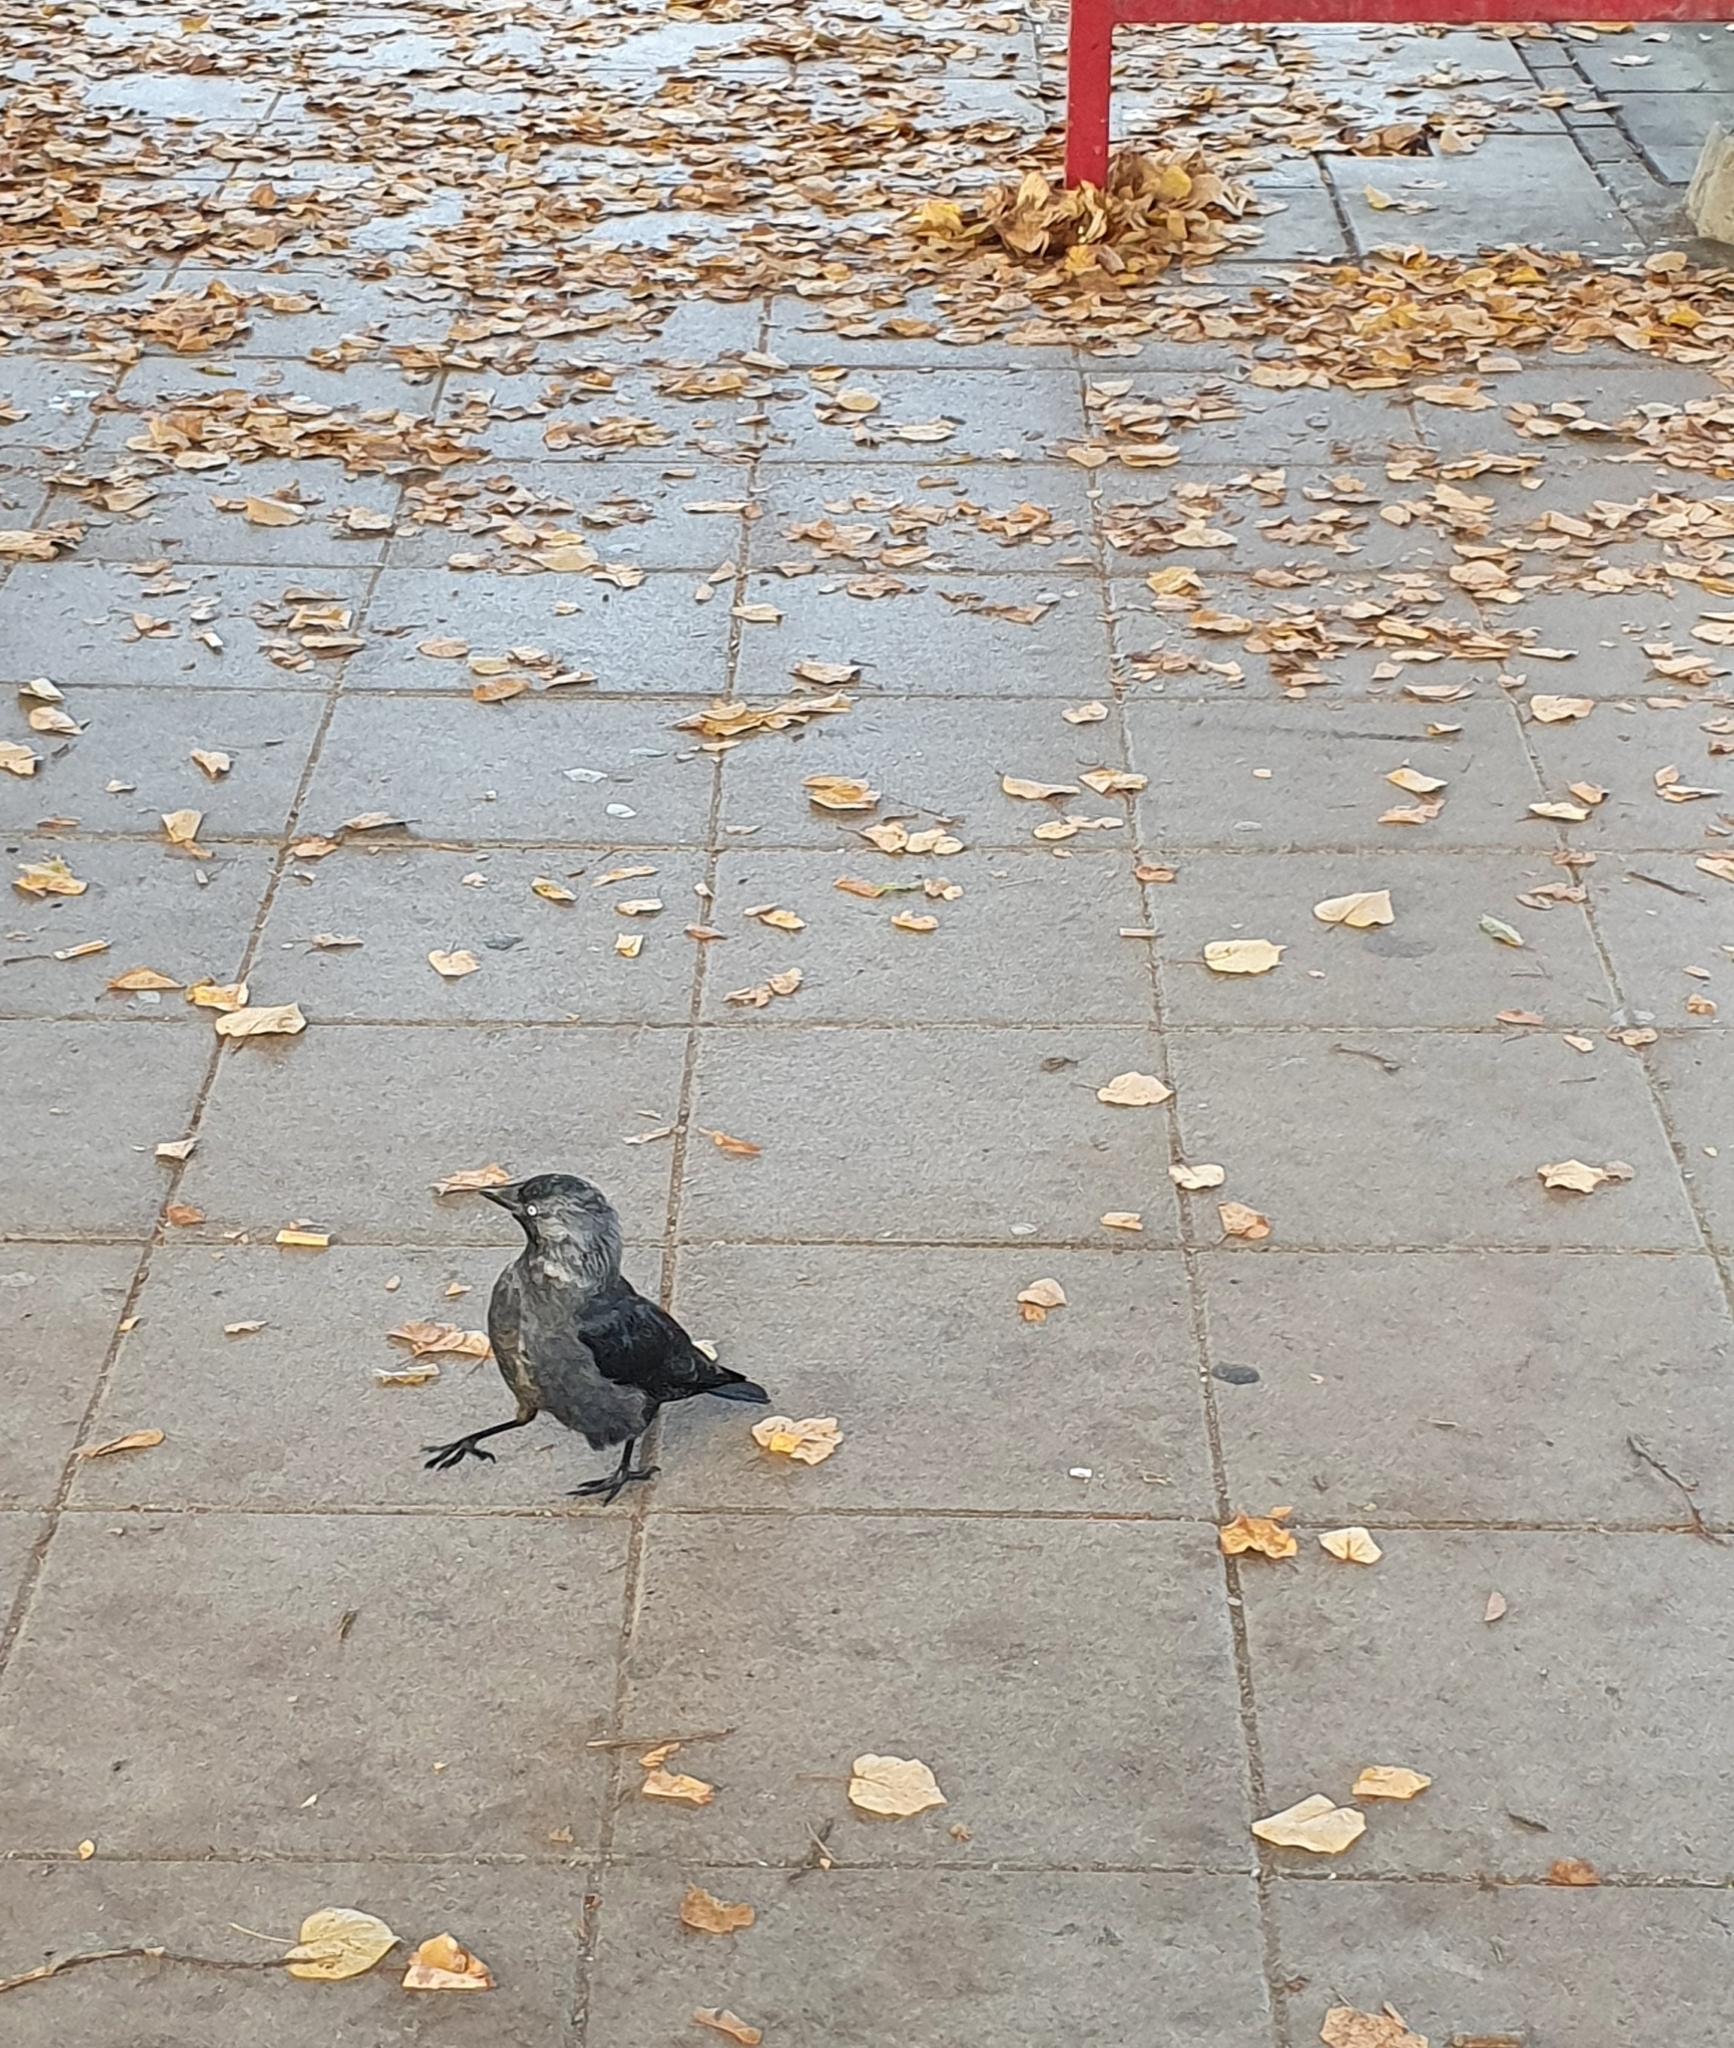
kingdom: Animalia
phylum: Chordata
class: Aves
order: Passeriformes
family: Corvidae
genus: Coloeus
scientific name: Coloeus monedula
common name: Western jackdaw
